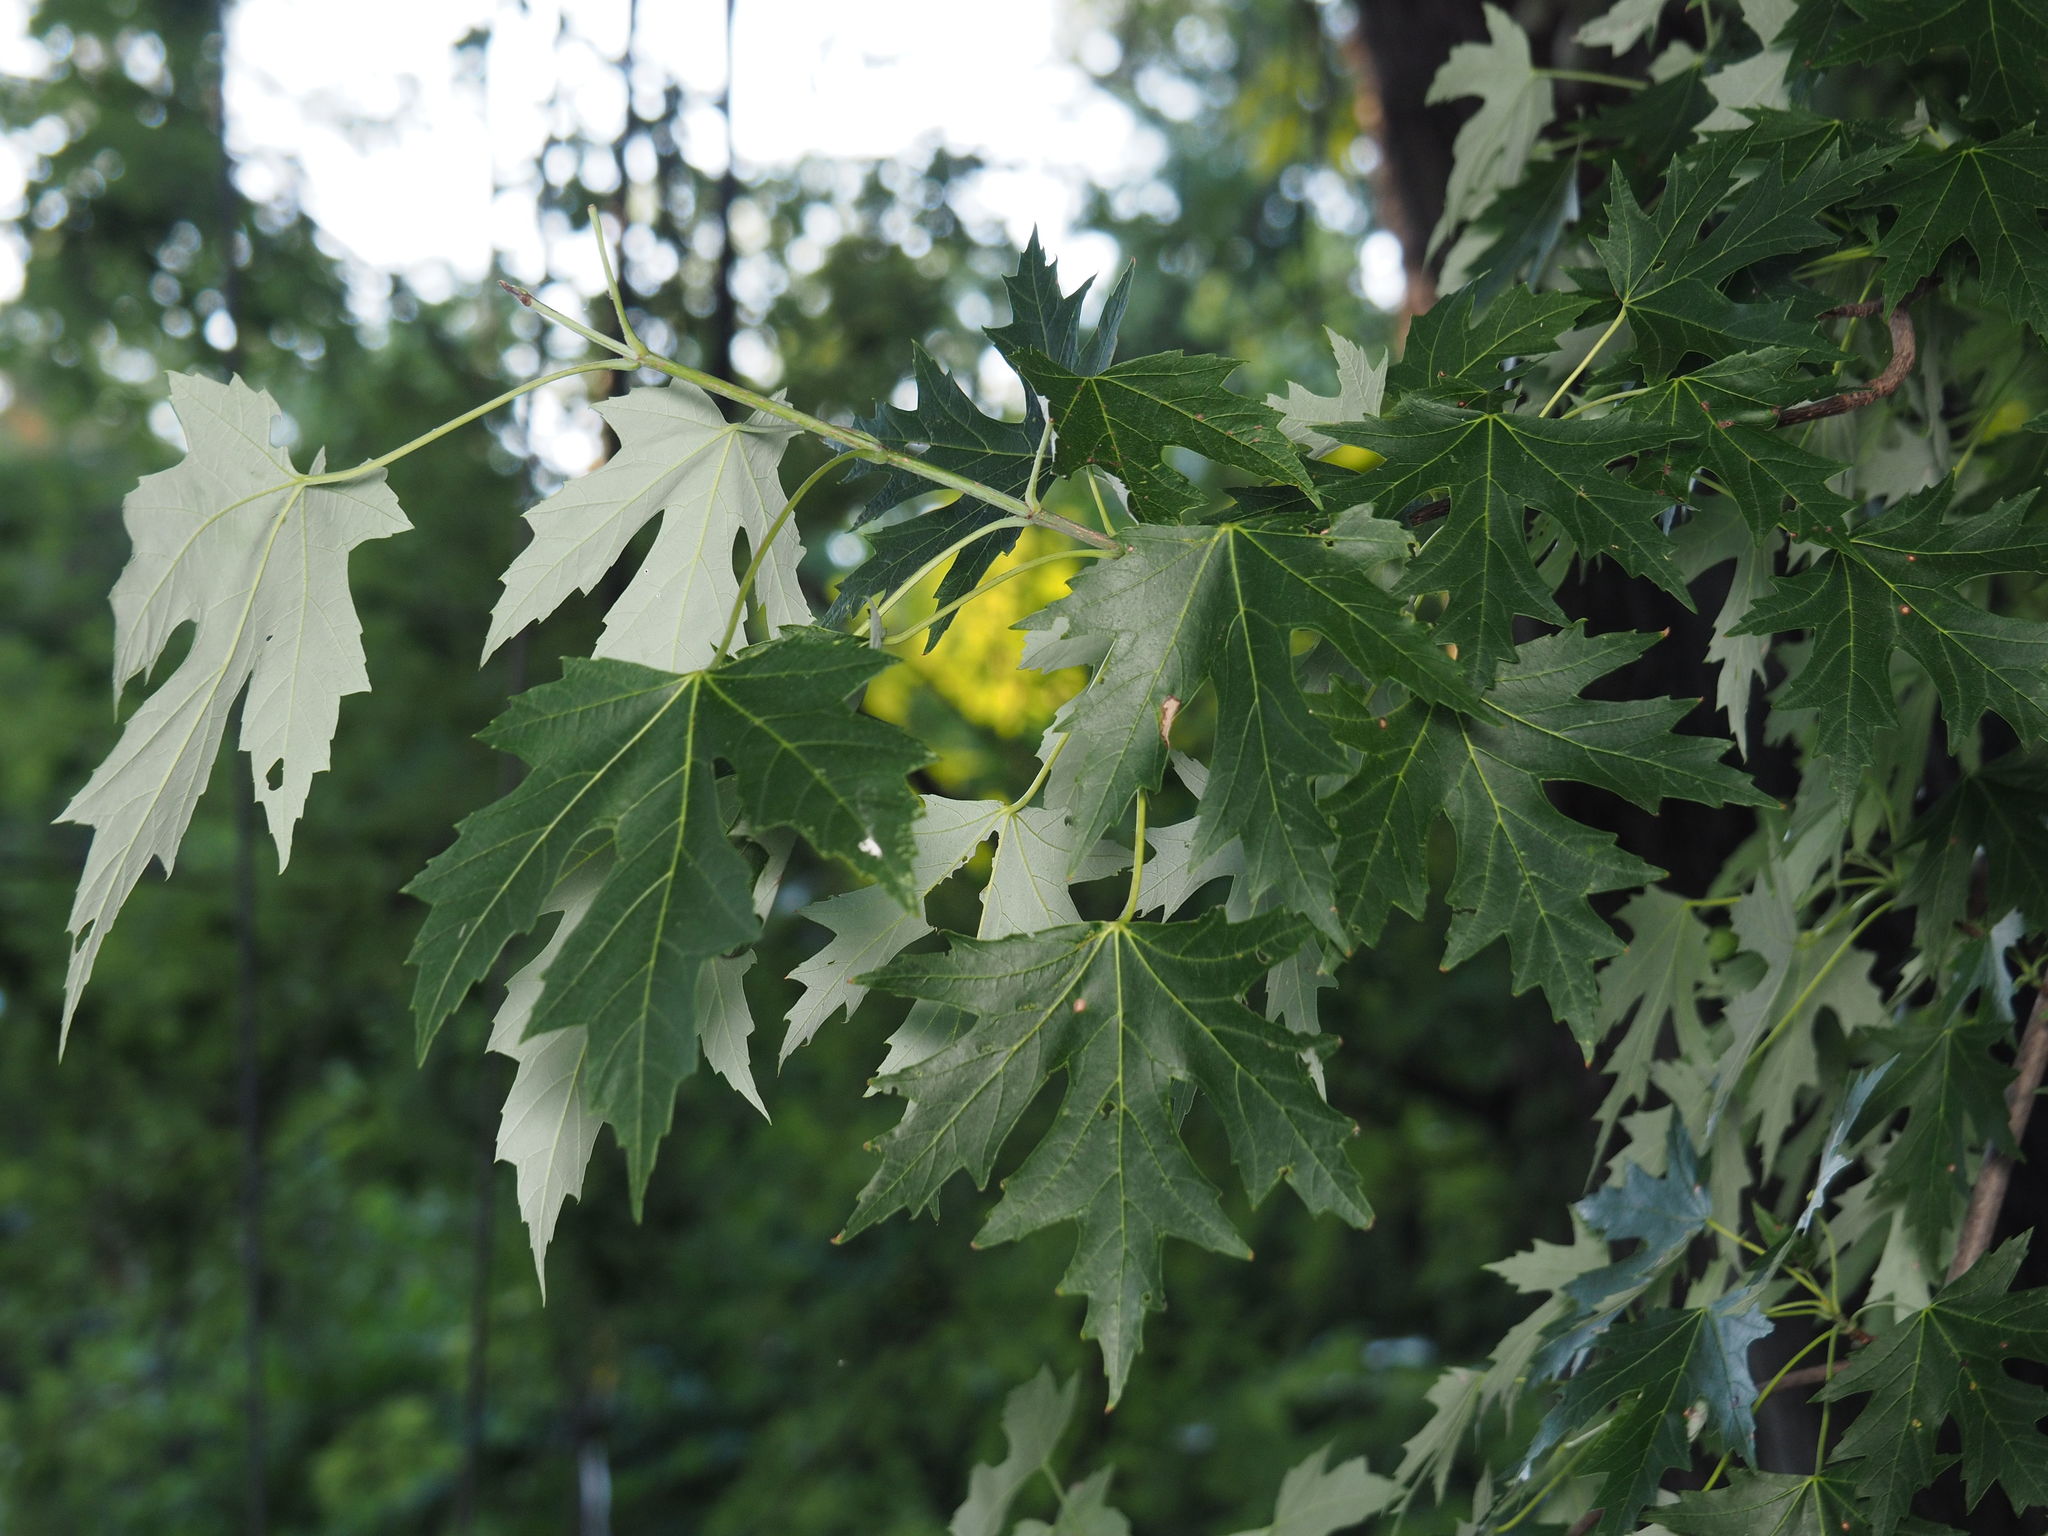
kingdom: Plantae
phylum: Tracheophyta
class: Magnoliopsida
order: Sapindales
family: Sapindaceae
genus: Acer
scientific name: Acer saccharinum
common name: Silver maple
